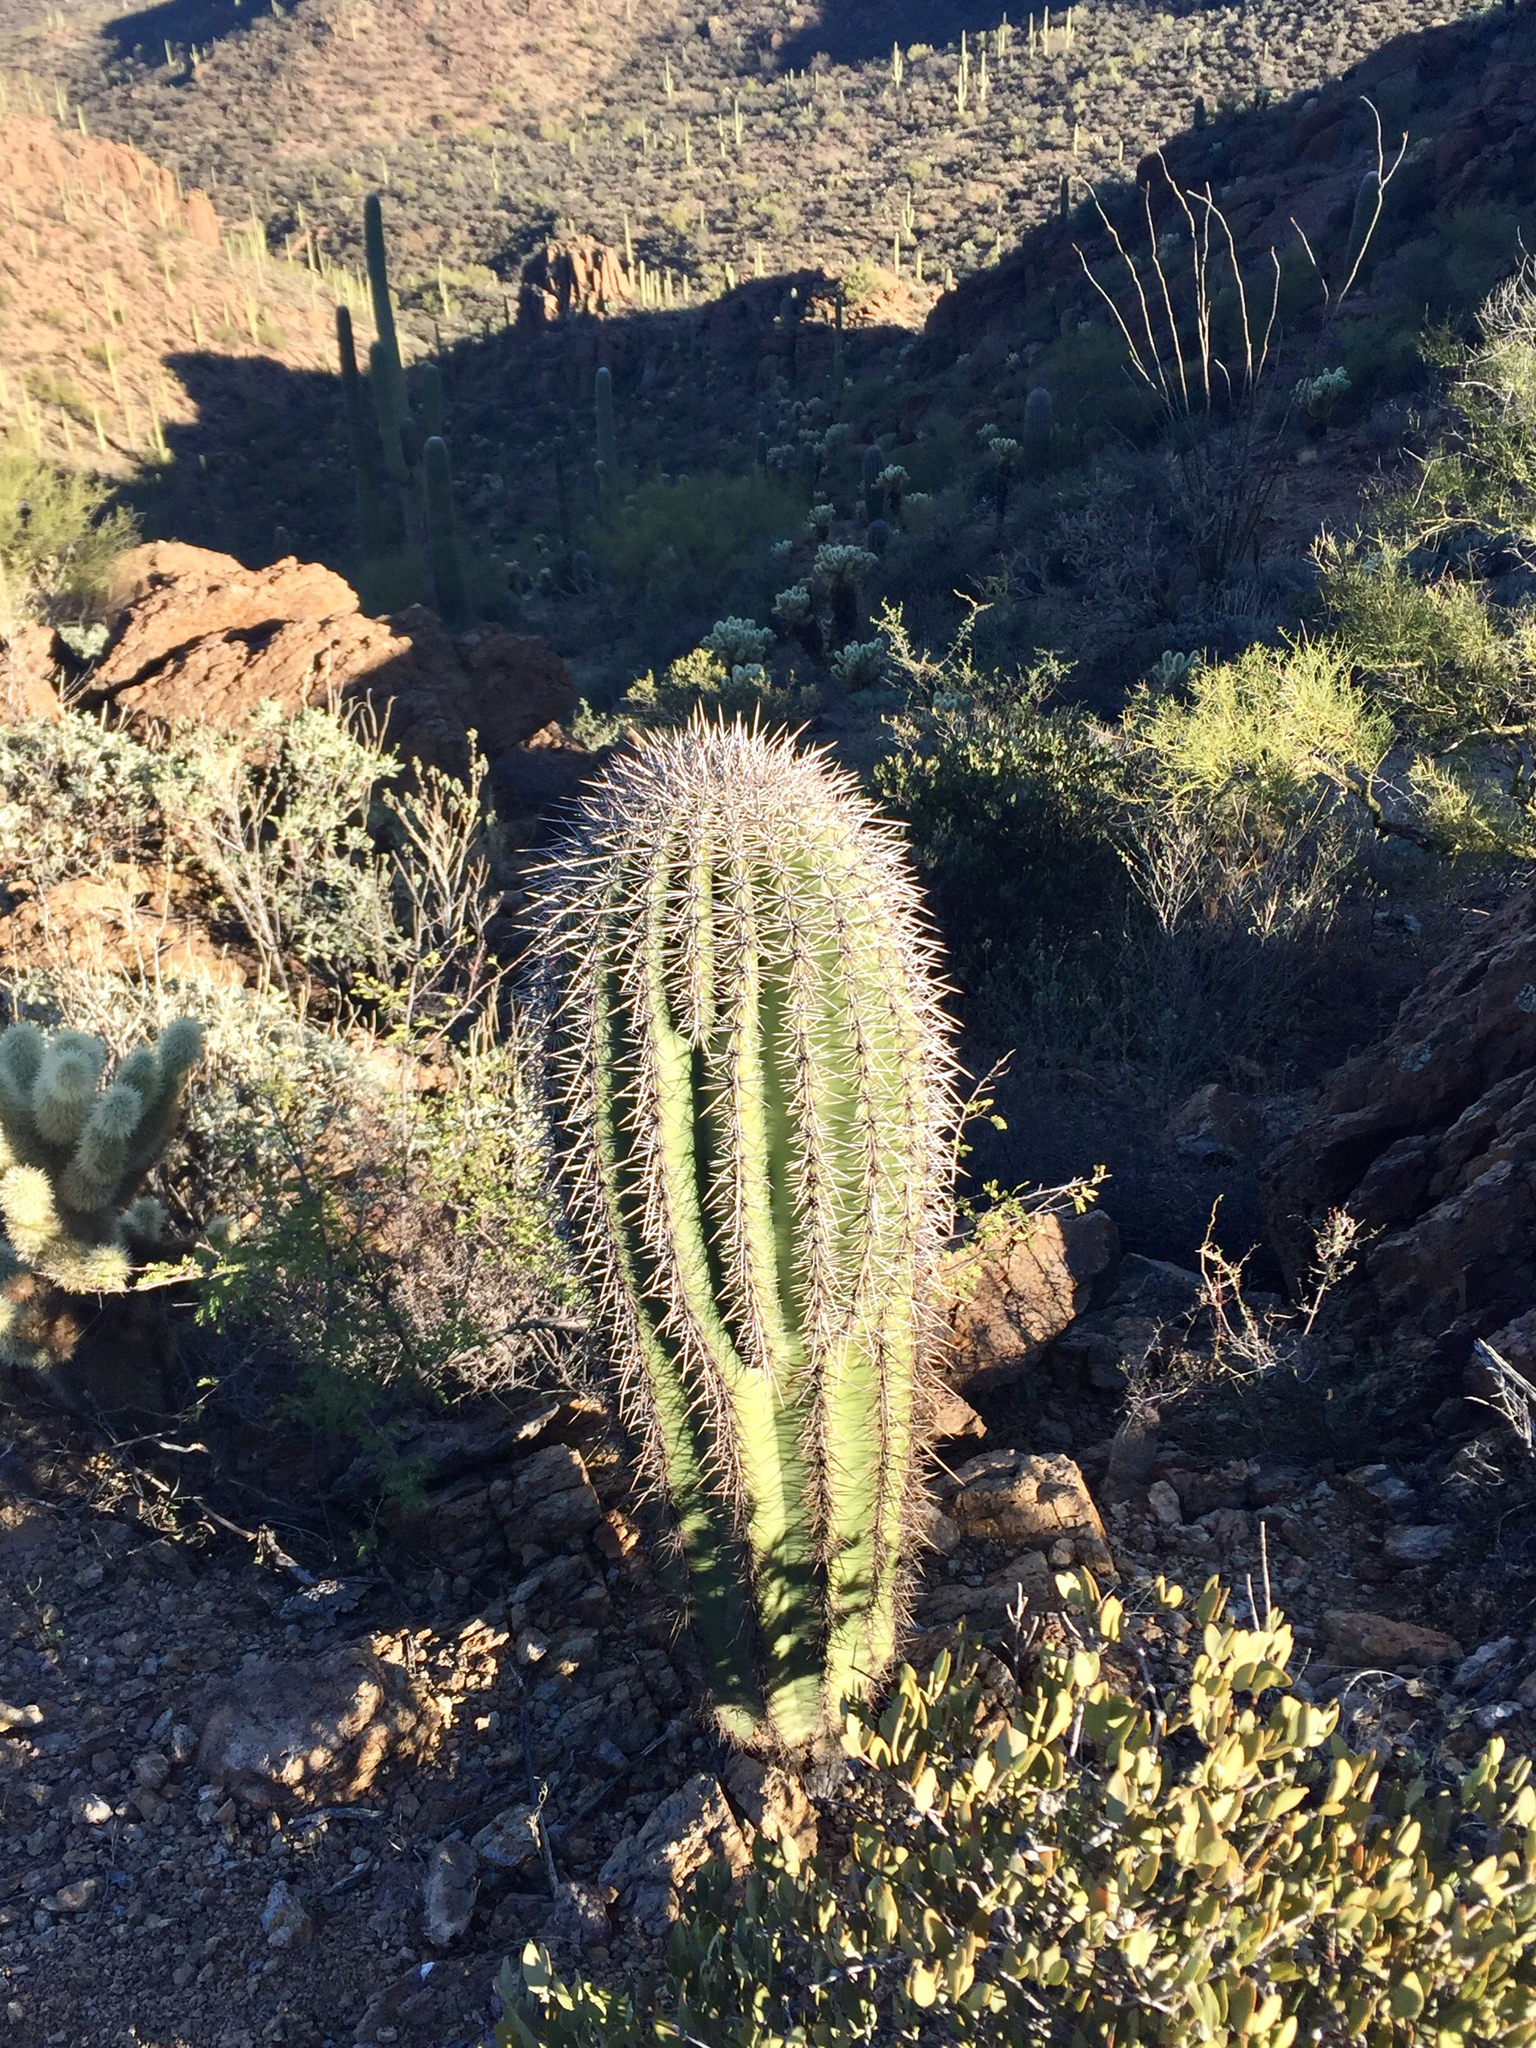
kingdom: Plantae
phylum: Tracheophyta
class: Magnoliopsida
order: Caryophyllales
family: Cactaceae
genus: Carnegiea
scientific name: Carnegiea gigantea
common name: Saguaro
